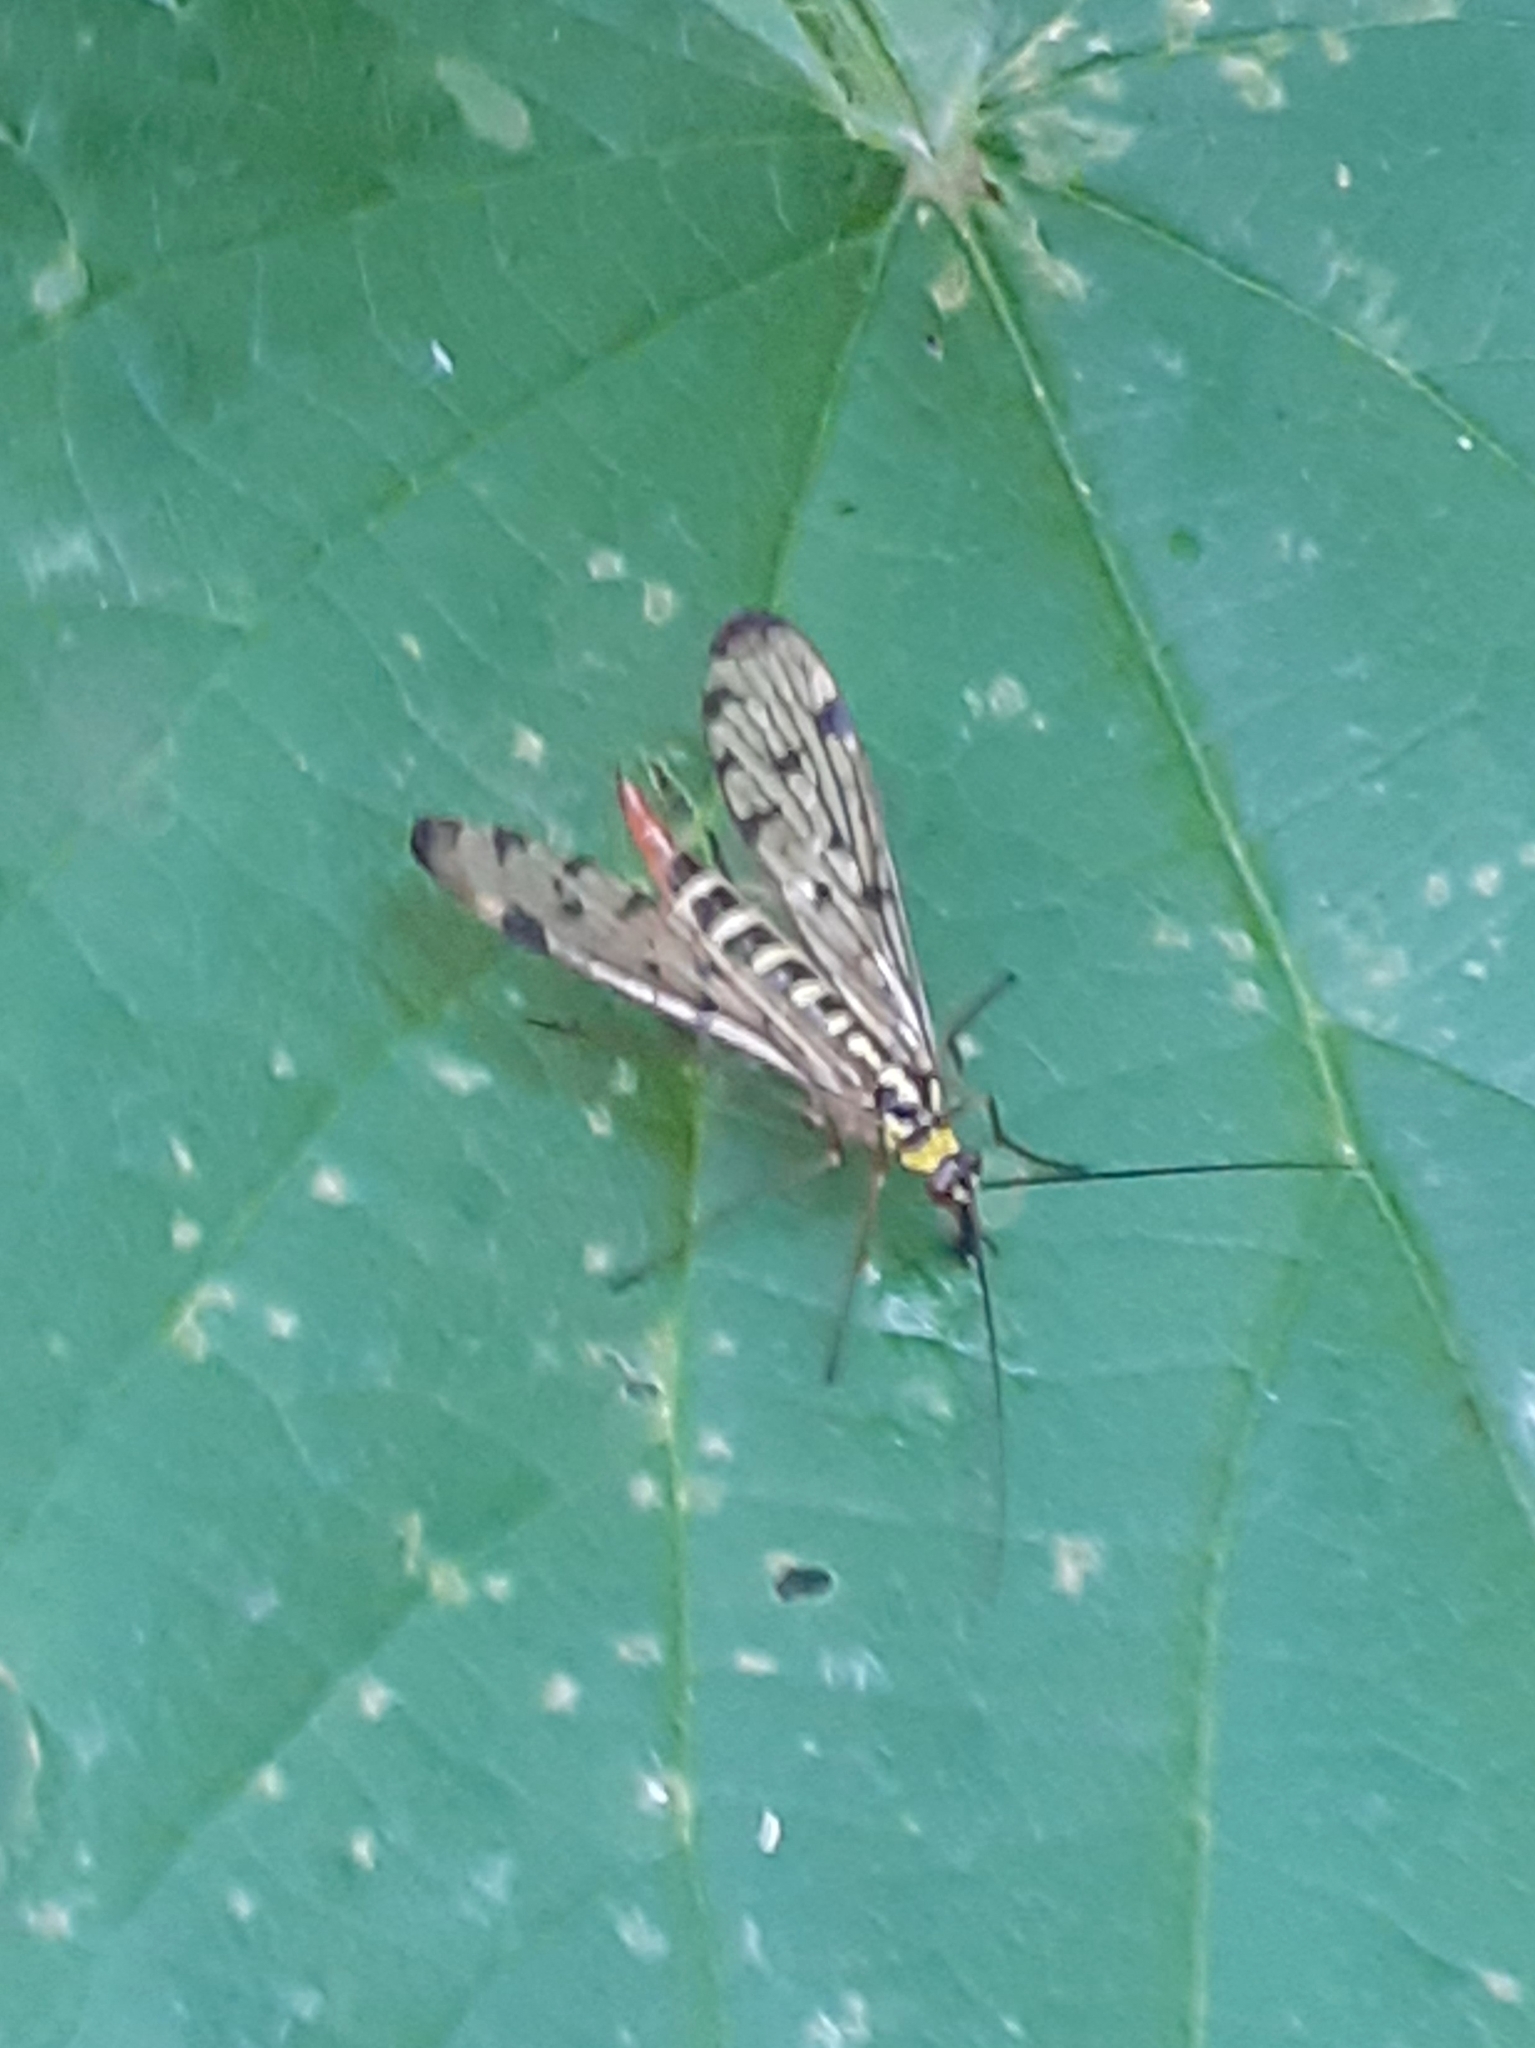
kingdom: Animalia
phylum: Arthropoda
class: Insecta
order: Mecoptera
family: Panorpidae
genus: Panorpa
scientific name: Panorpa
